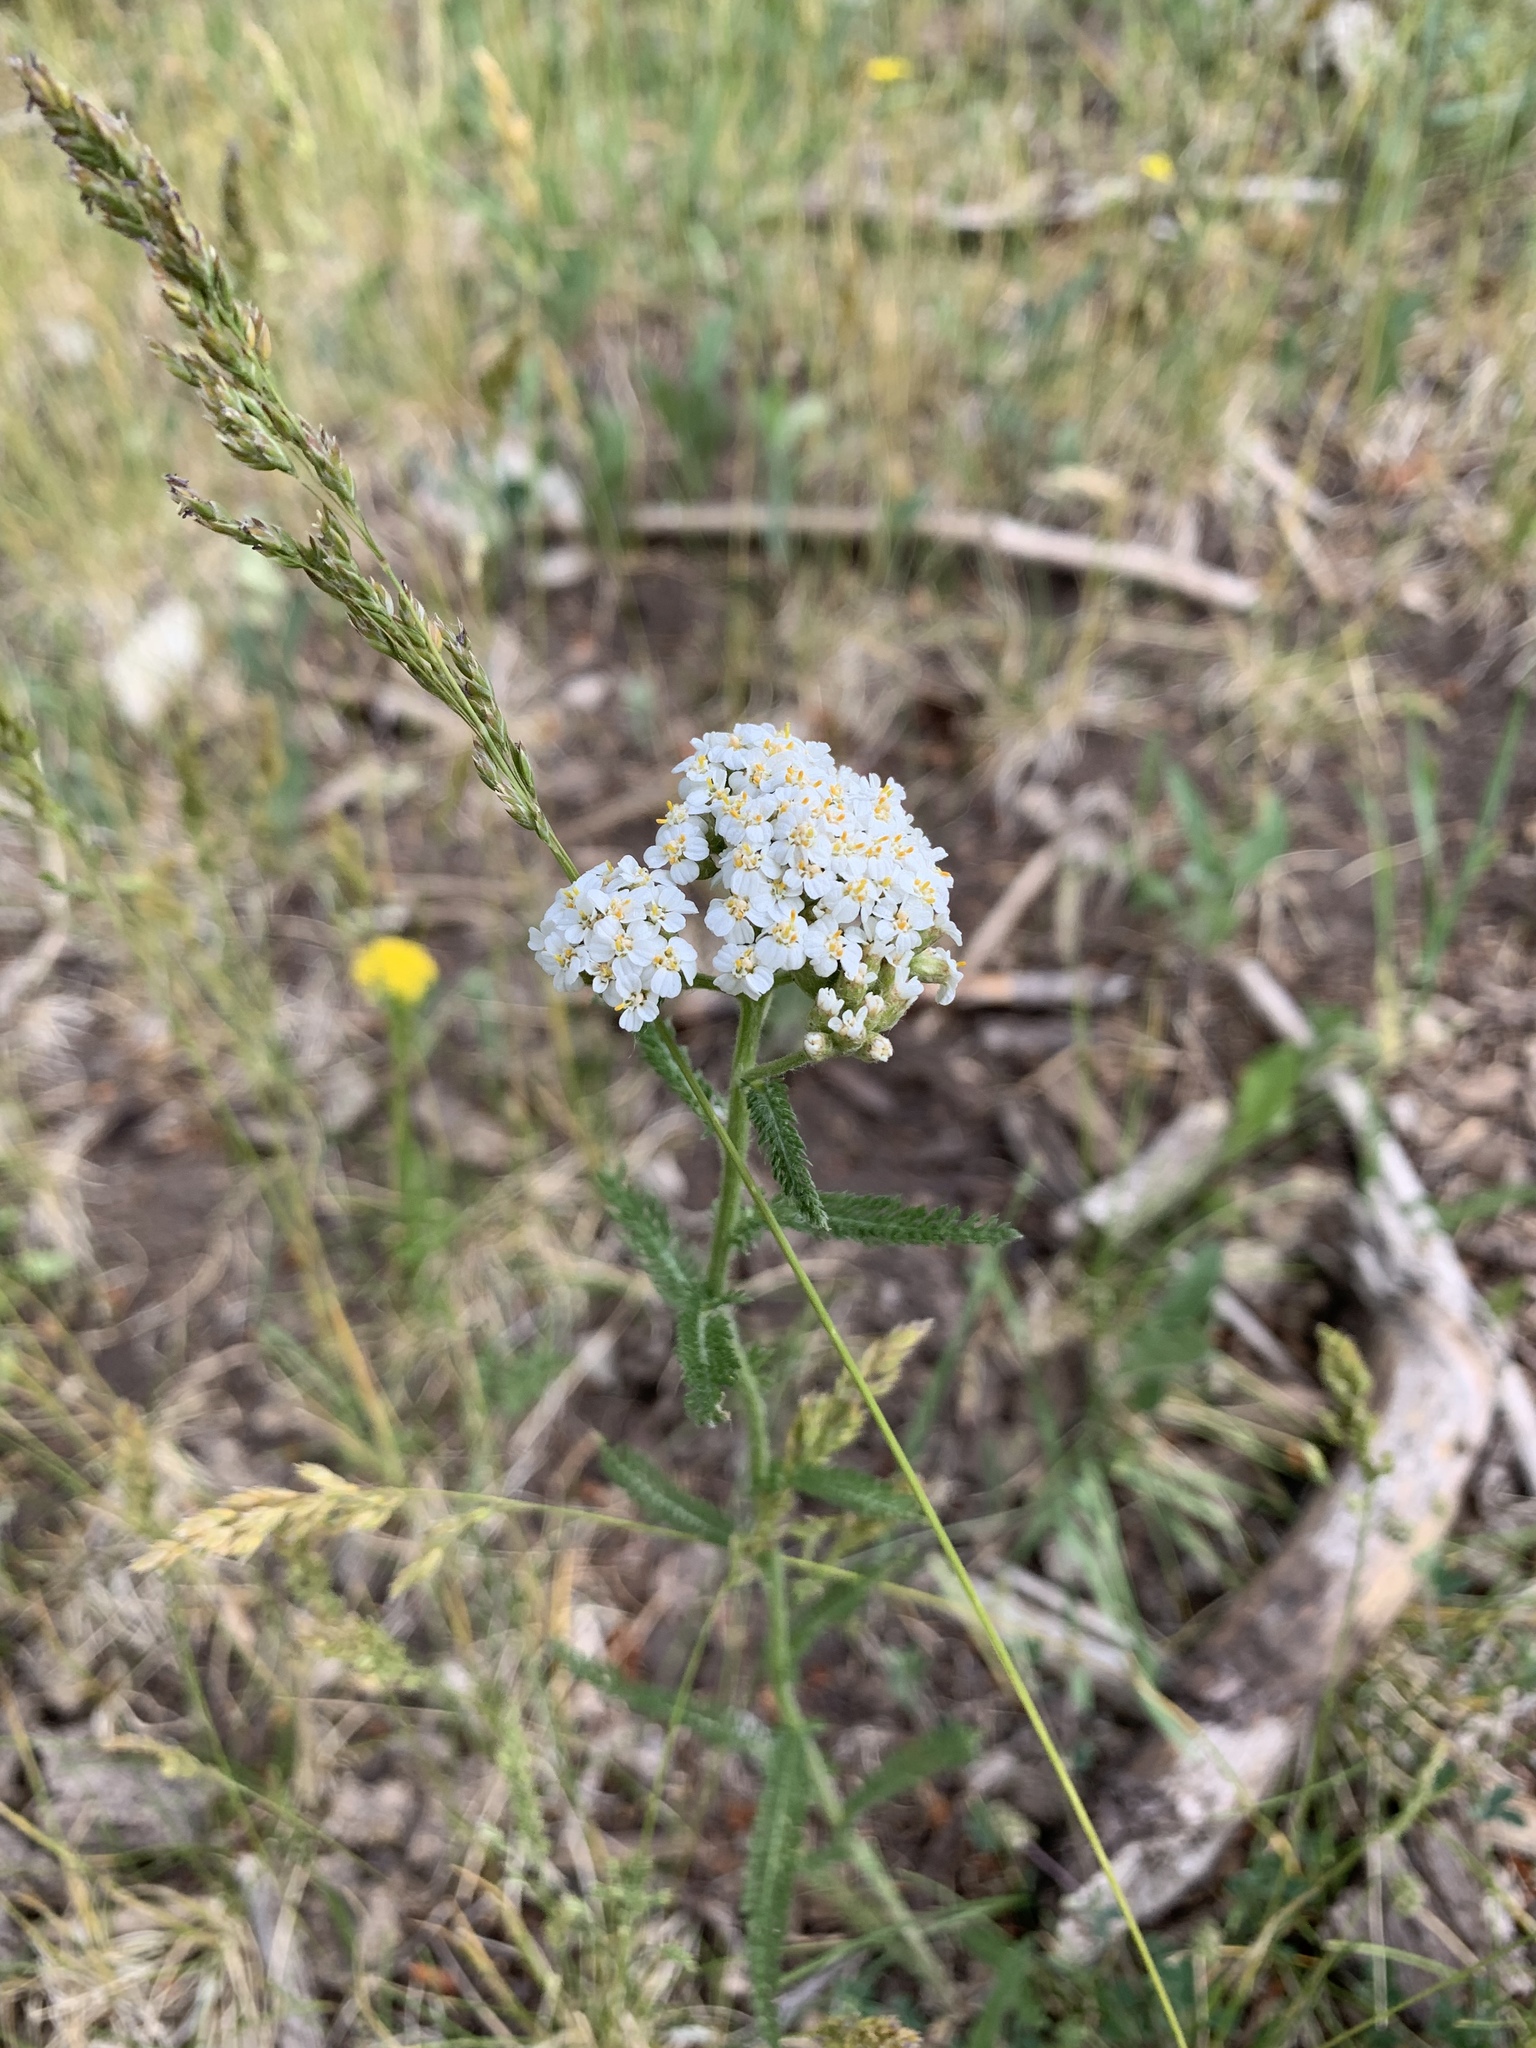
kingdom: Plantae
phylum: Tracheophyta
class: Magnoliopsida
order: Asterales
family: Asteraceae
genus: Achillea
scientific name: Achillea millefolium
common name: Yarrow
